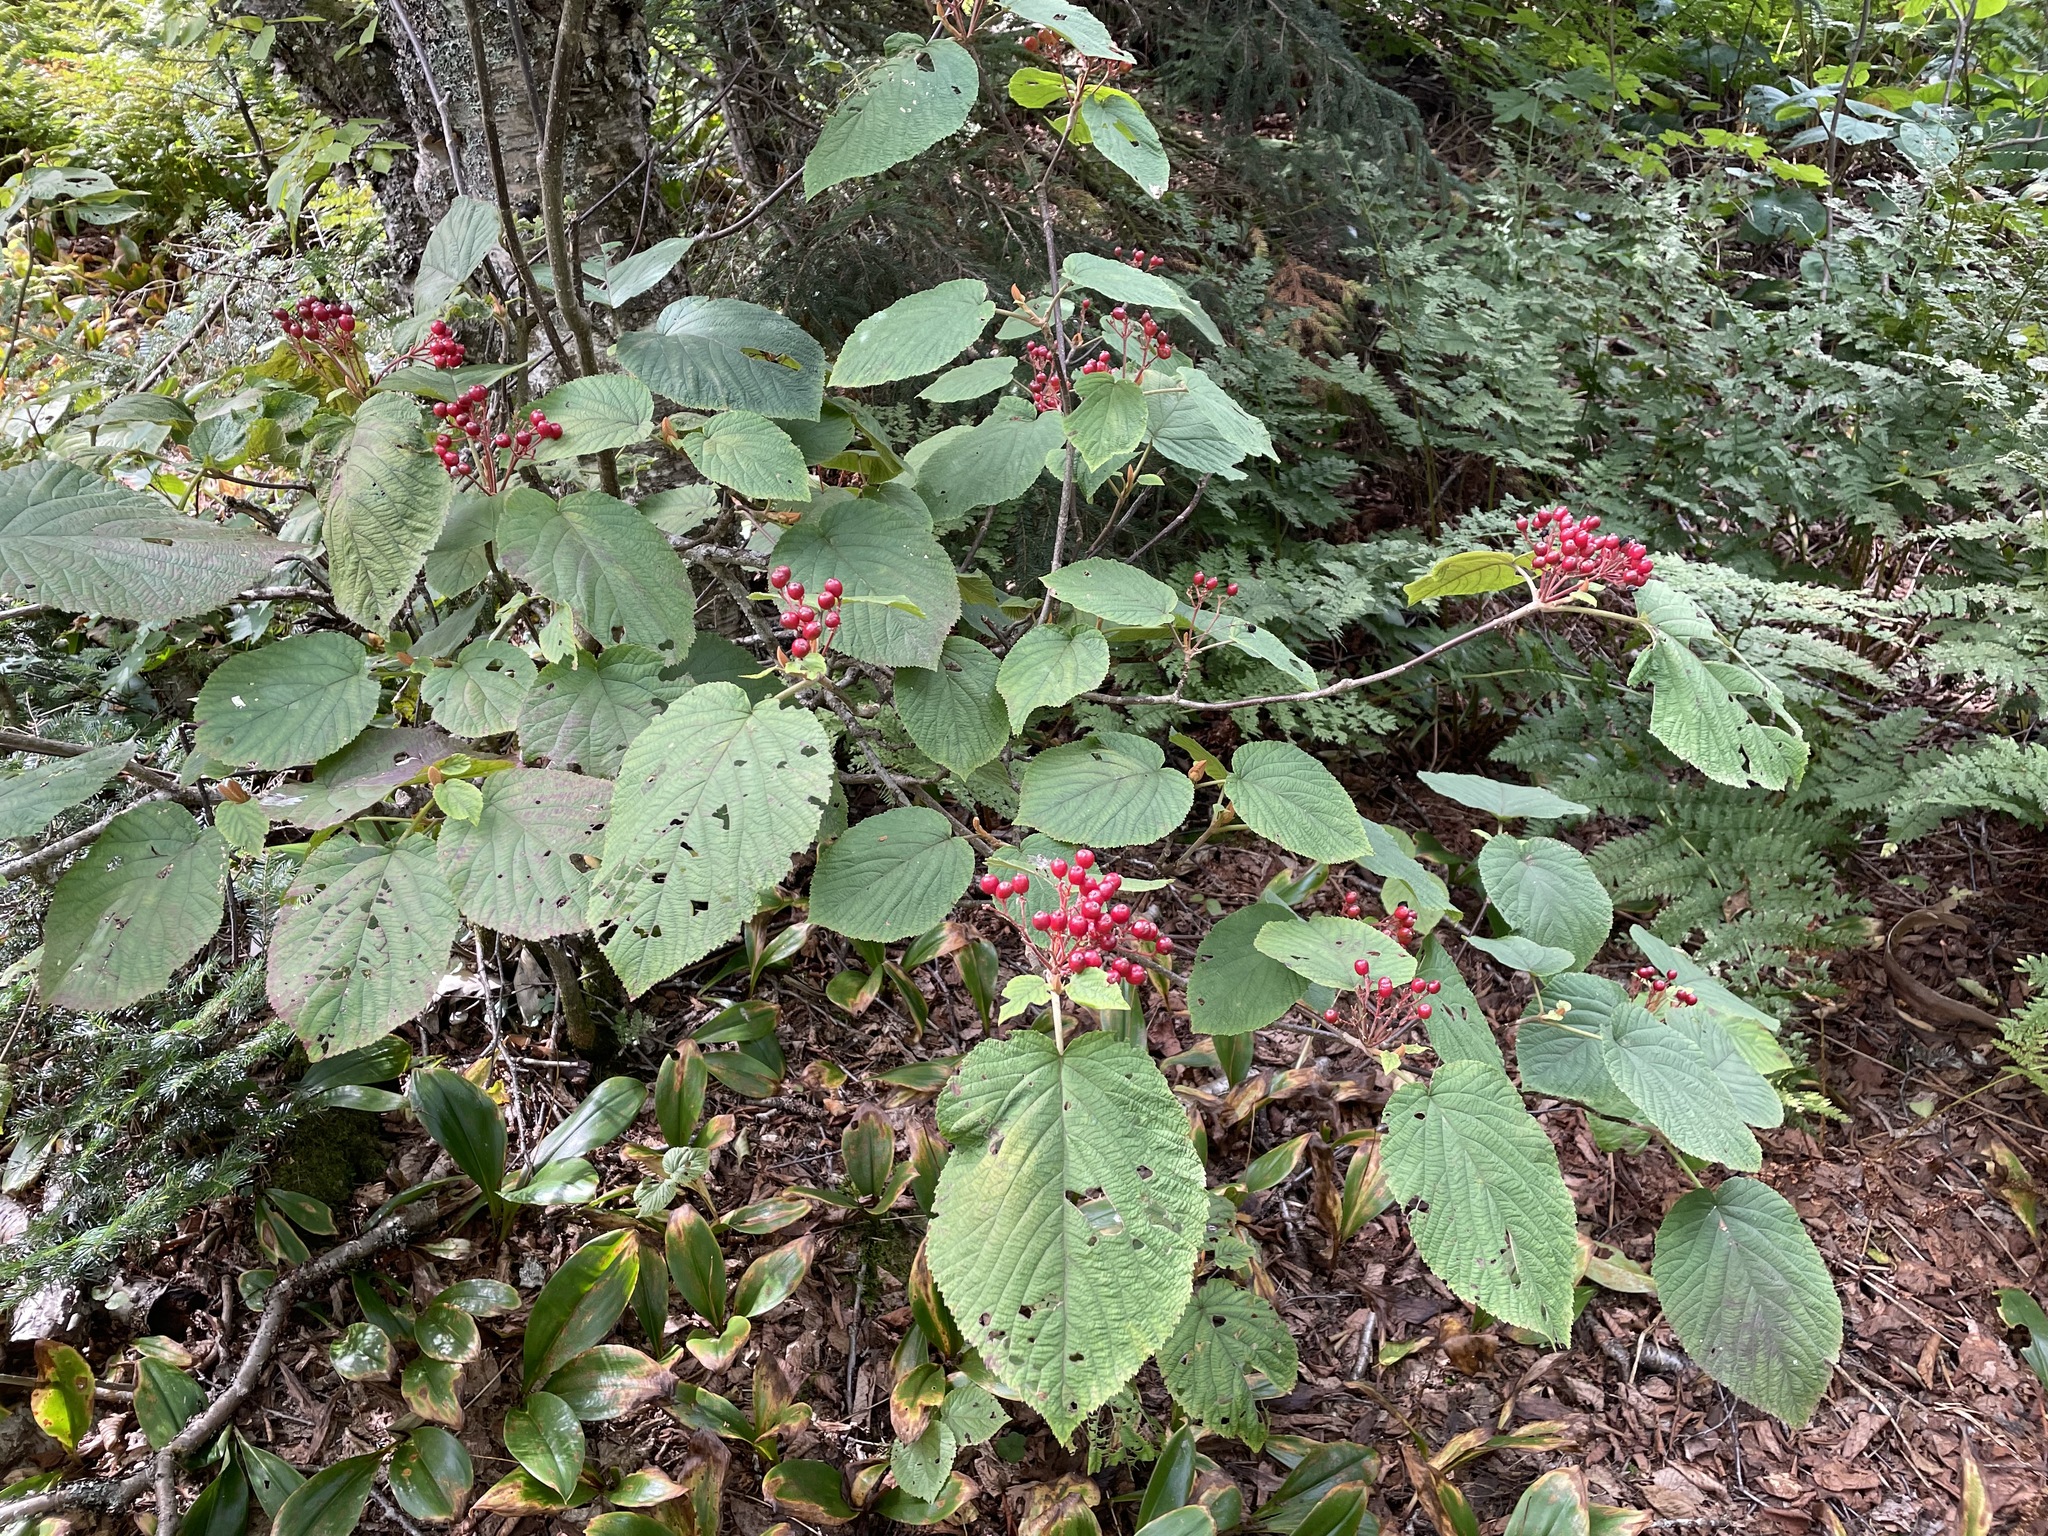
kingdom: Plantae
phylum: Tracheophyta
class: Magnoliopsida
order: Dipsacales
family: Viburnaceae
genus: Viburnum
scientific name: Viburnum lantanoides
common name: Hobblebush
